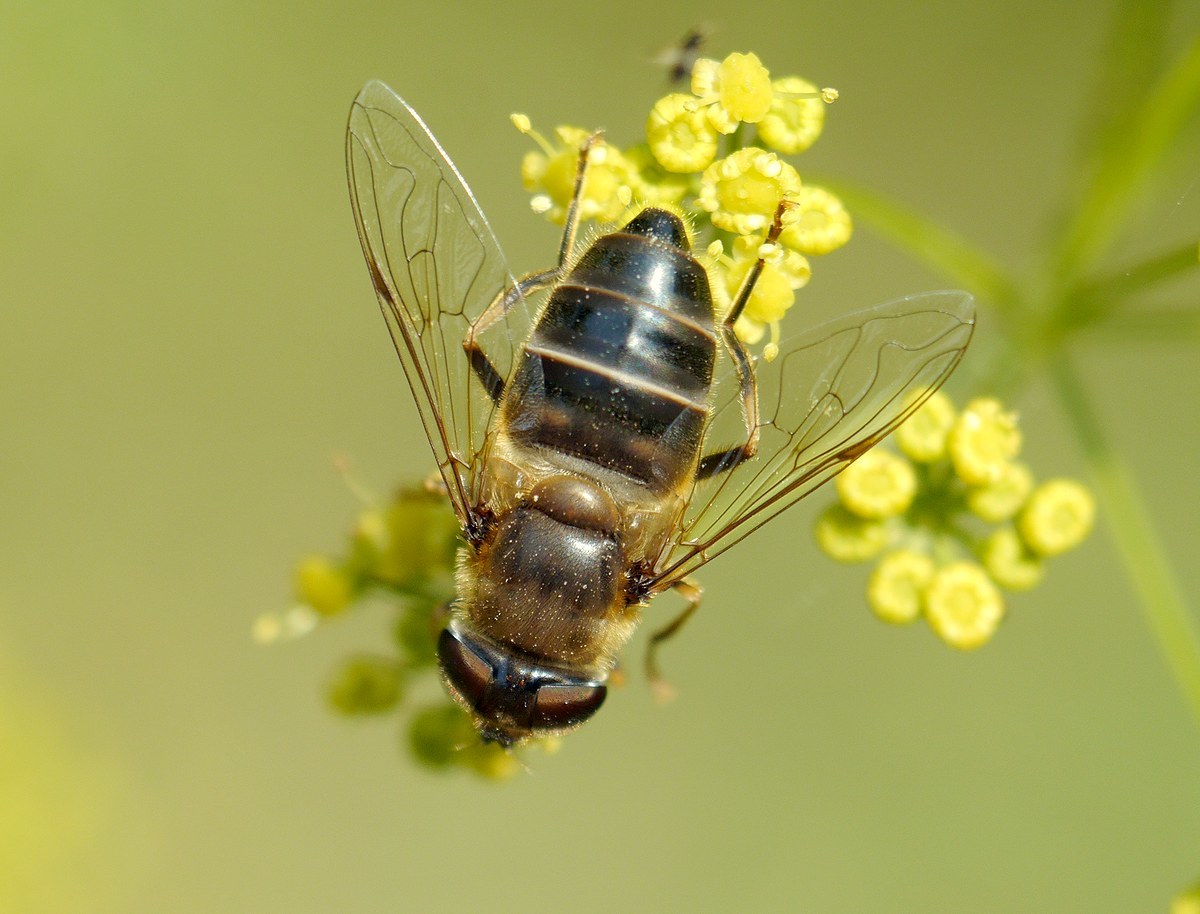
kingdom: Animalia
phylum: Arthropoda
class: Insecta
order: Diptera
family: Syrphidae
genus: Eristalis
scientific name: Eristalis pertinax
